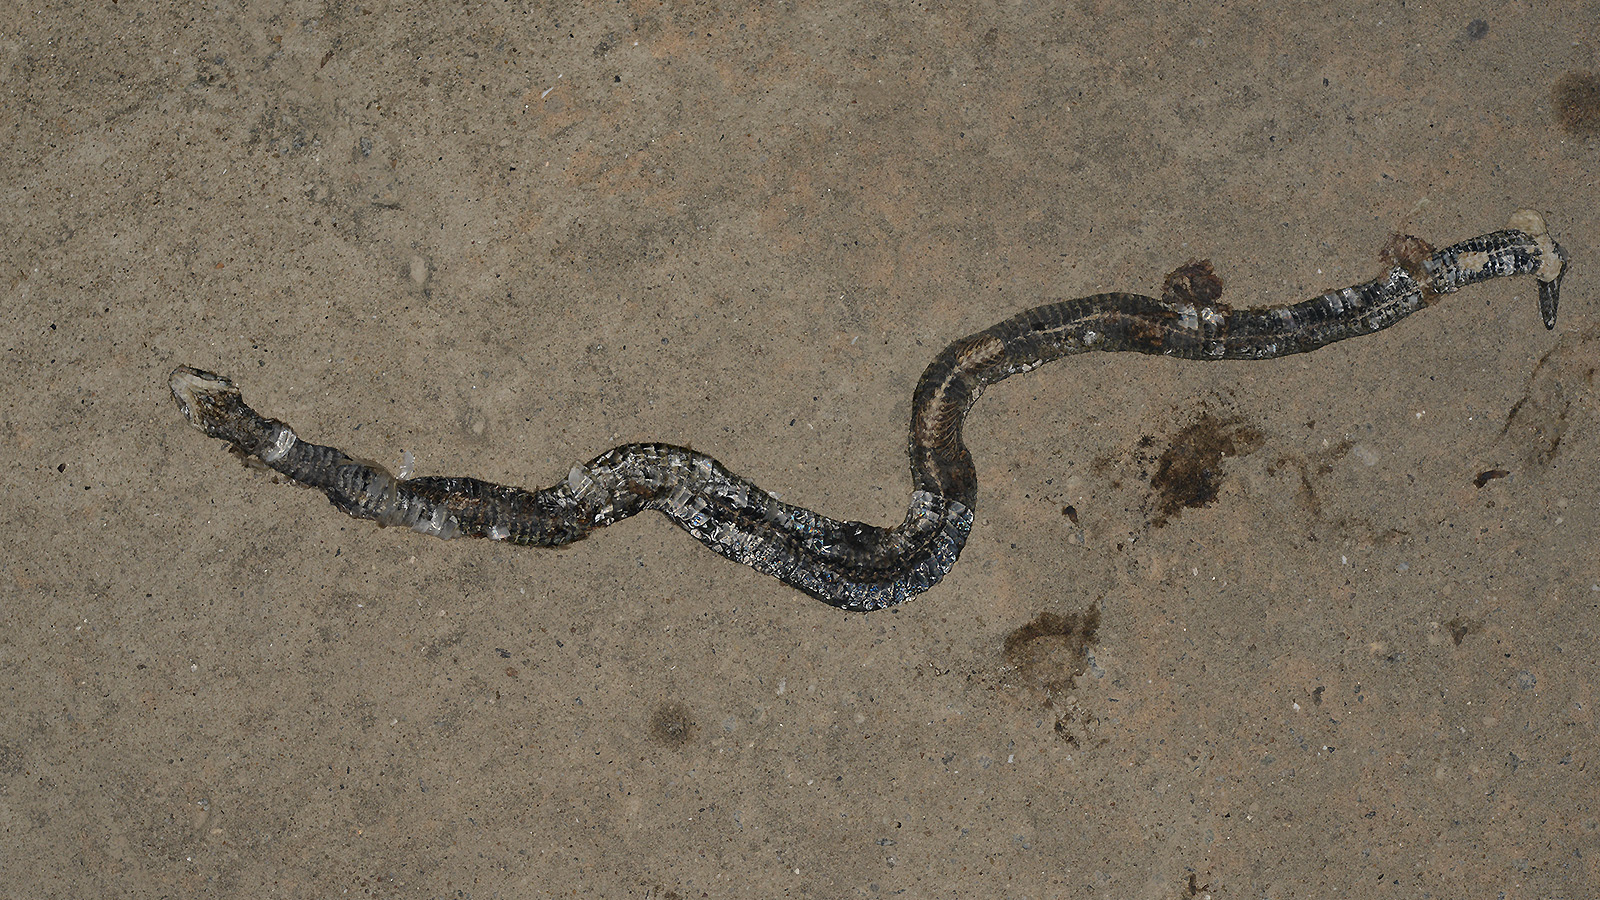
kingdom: Animalia
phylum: Chordata
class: Squamata
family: Colubridae
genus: Rhabdophis
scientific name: Rhabdophis tigrinus
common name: Tiger keelback
